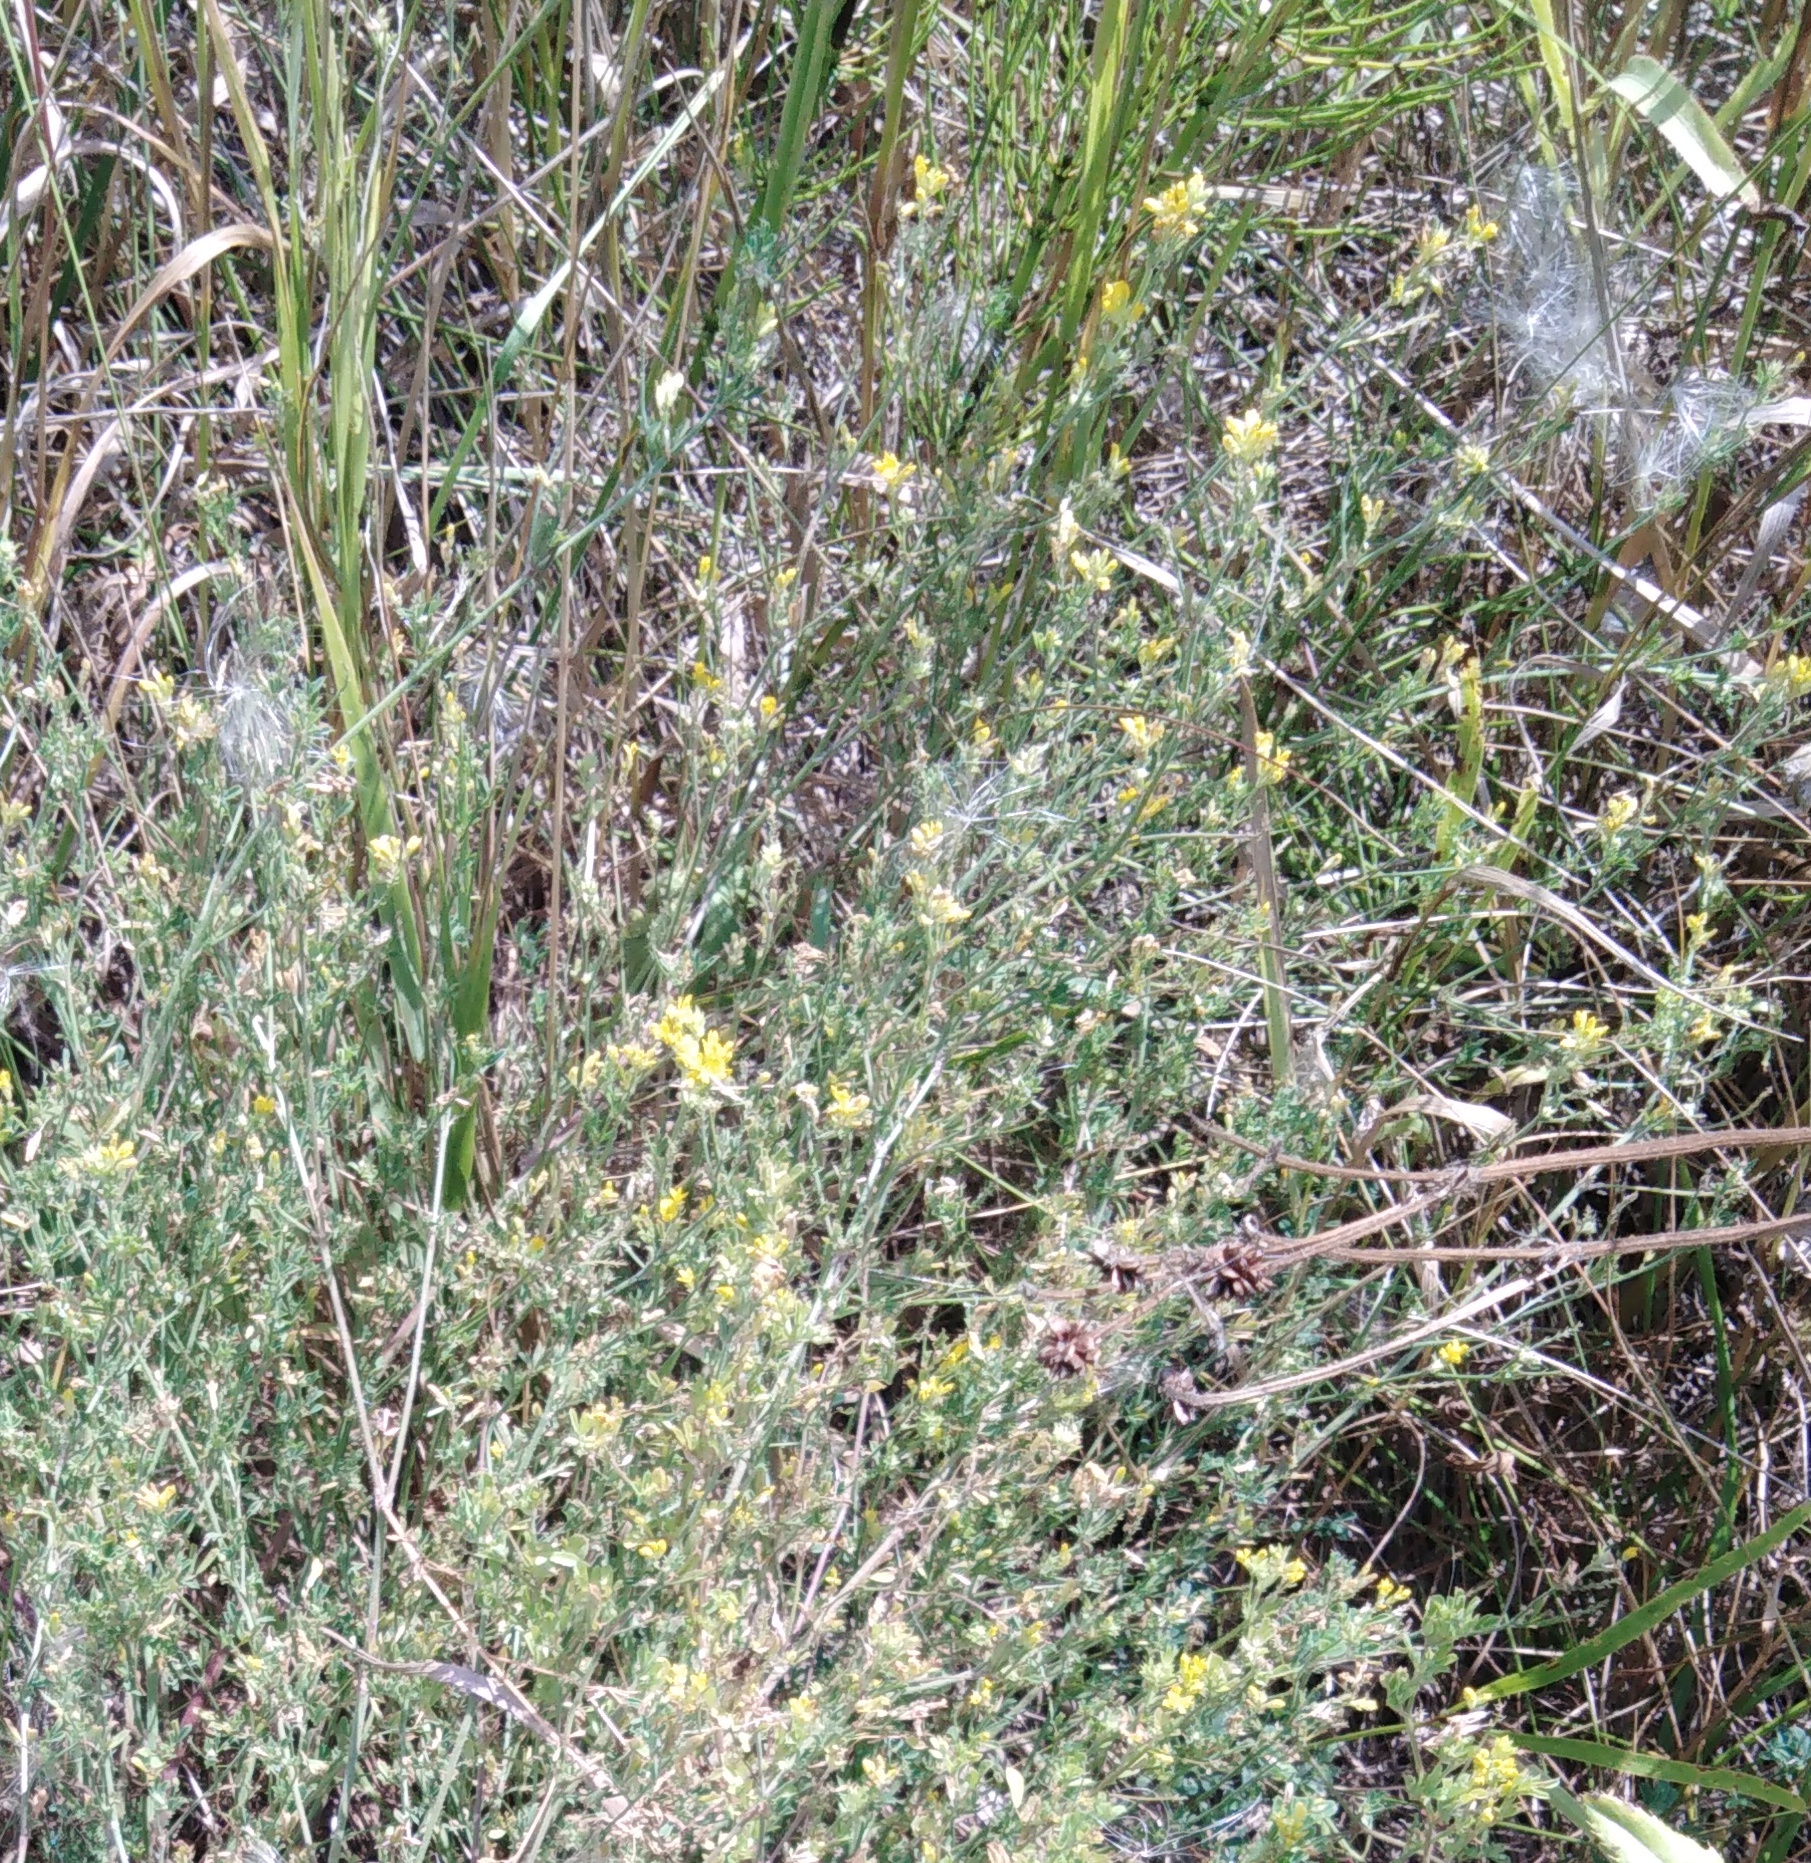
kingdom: Plantae
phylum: Tracheophyta
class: Magnoliopsida
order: Fabales
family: Fabaceae
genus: Medicago
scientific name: Medicago falcata
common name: Sickle medick
